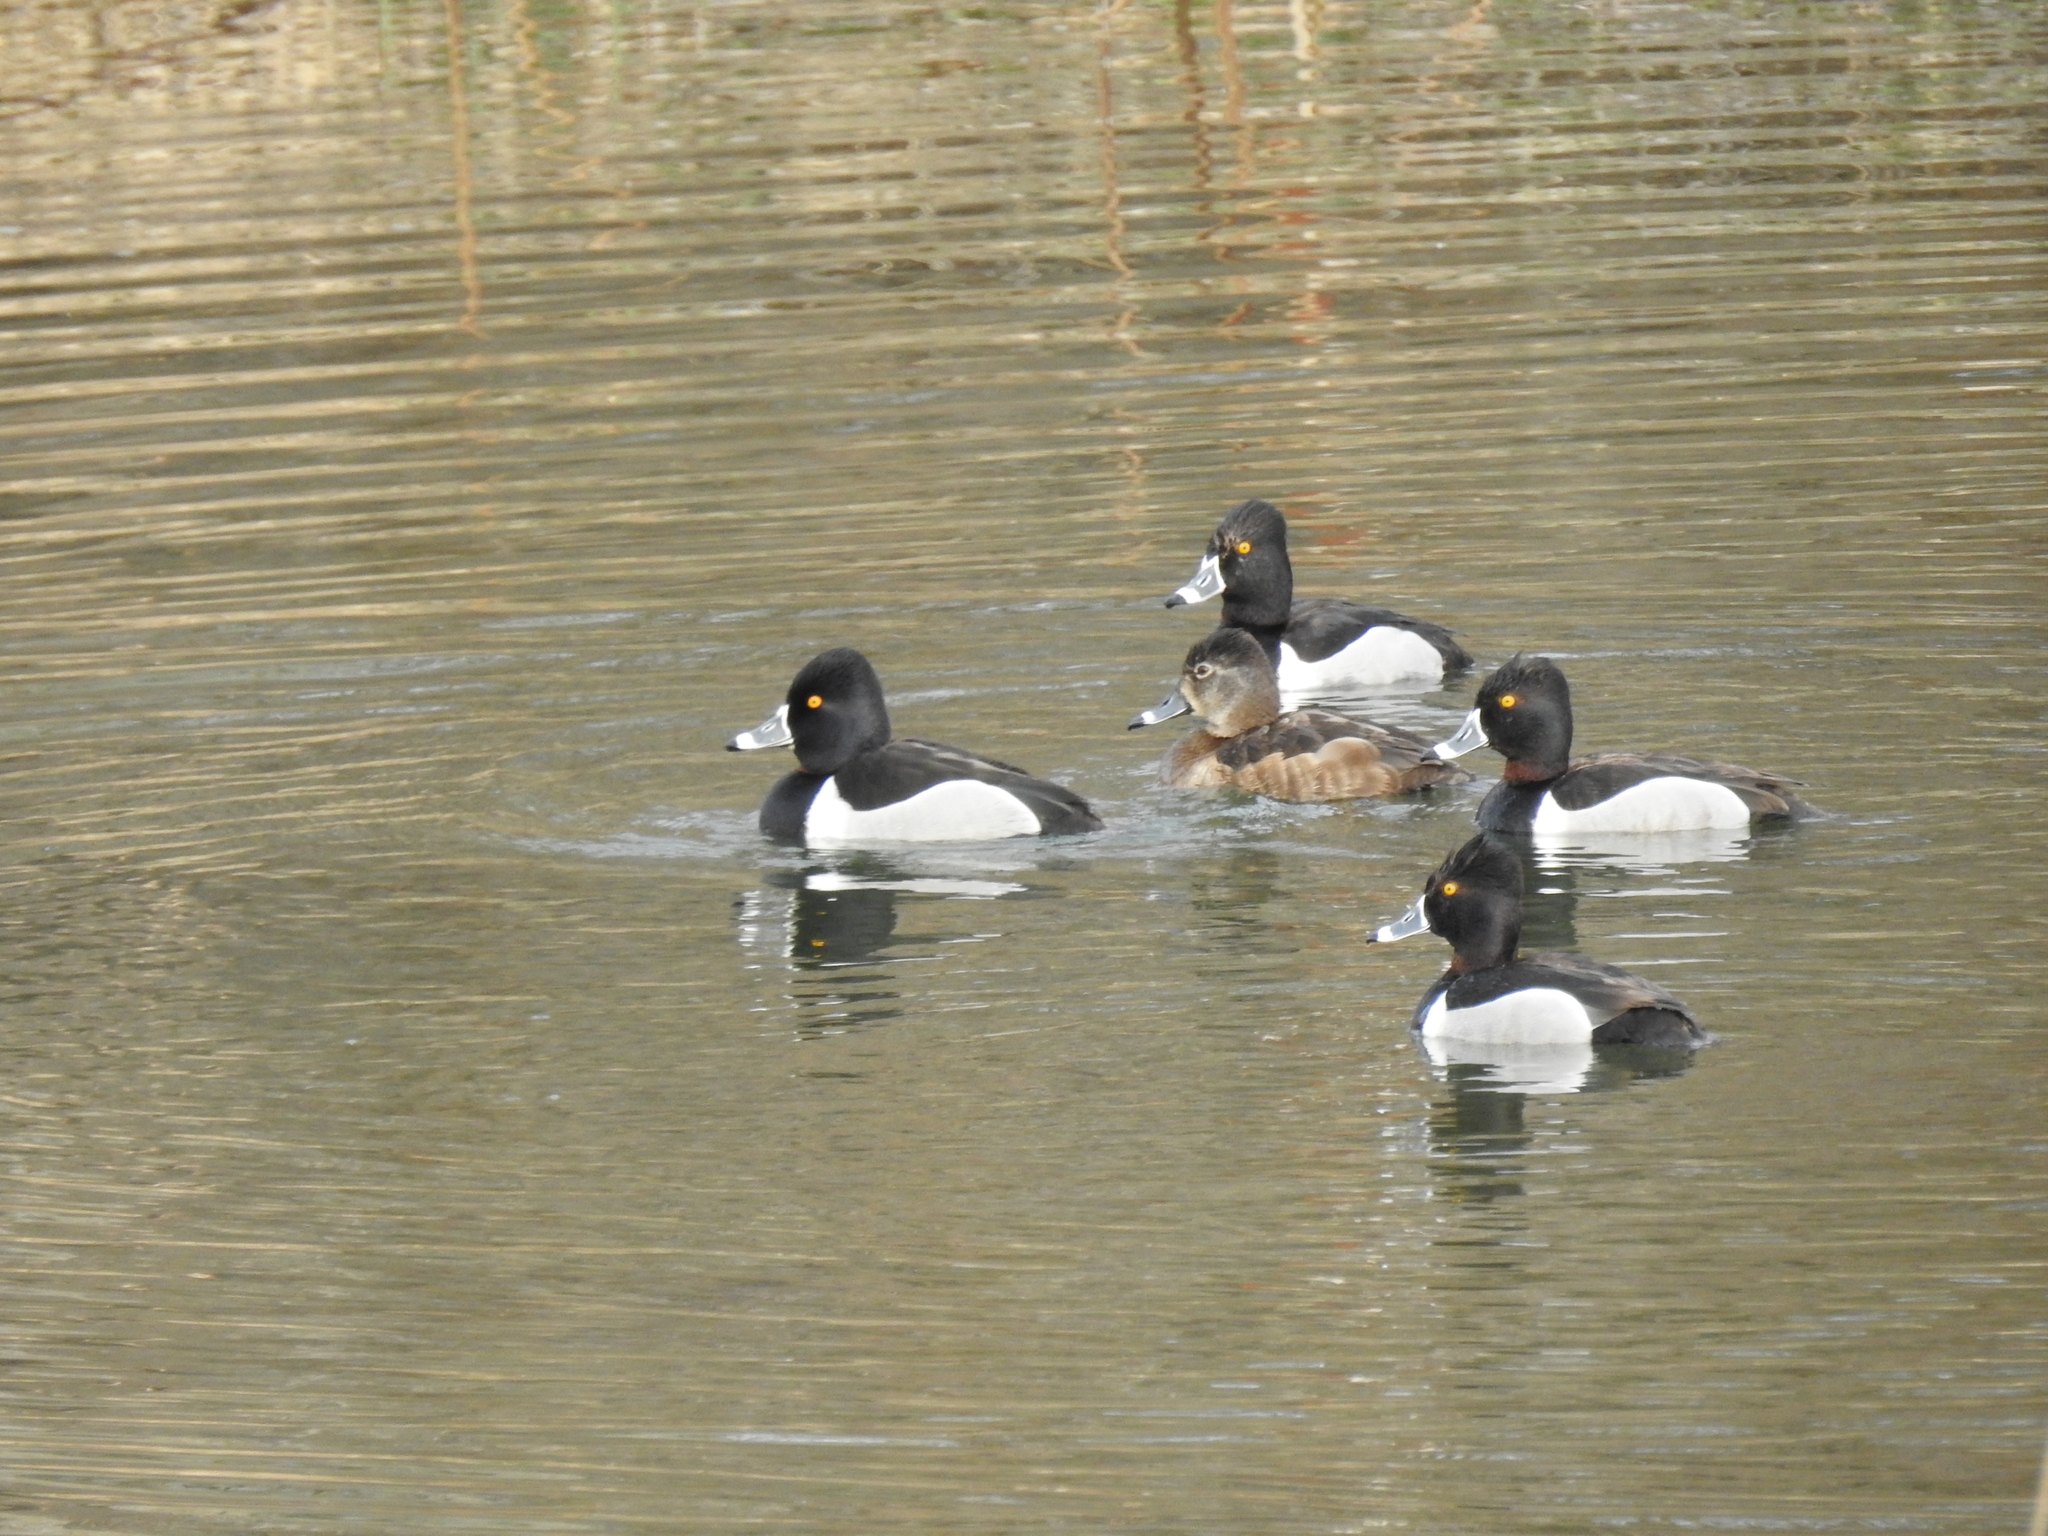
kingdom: Animalia
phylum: Chordata
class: Aves
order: Anseriformes
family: Anatidae
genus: Aythya
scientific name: Aythya collaris
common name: Ring-necked duck
